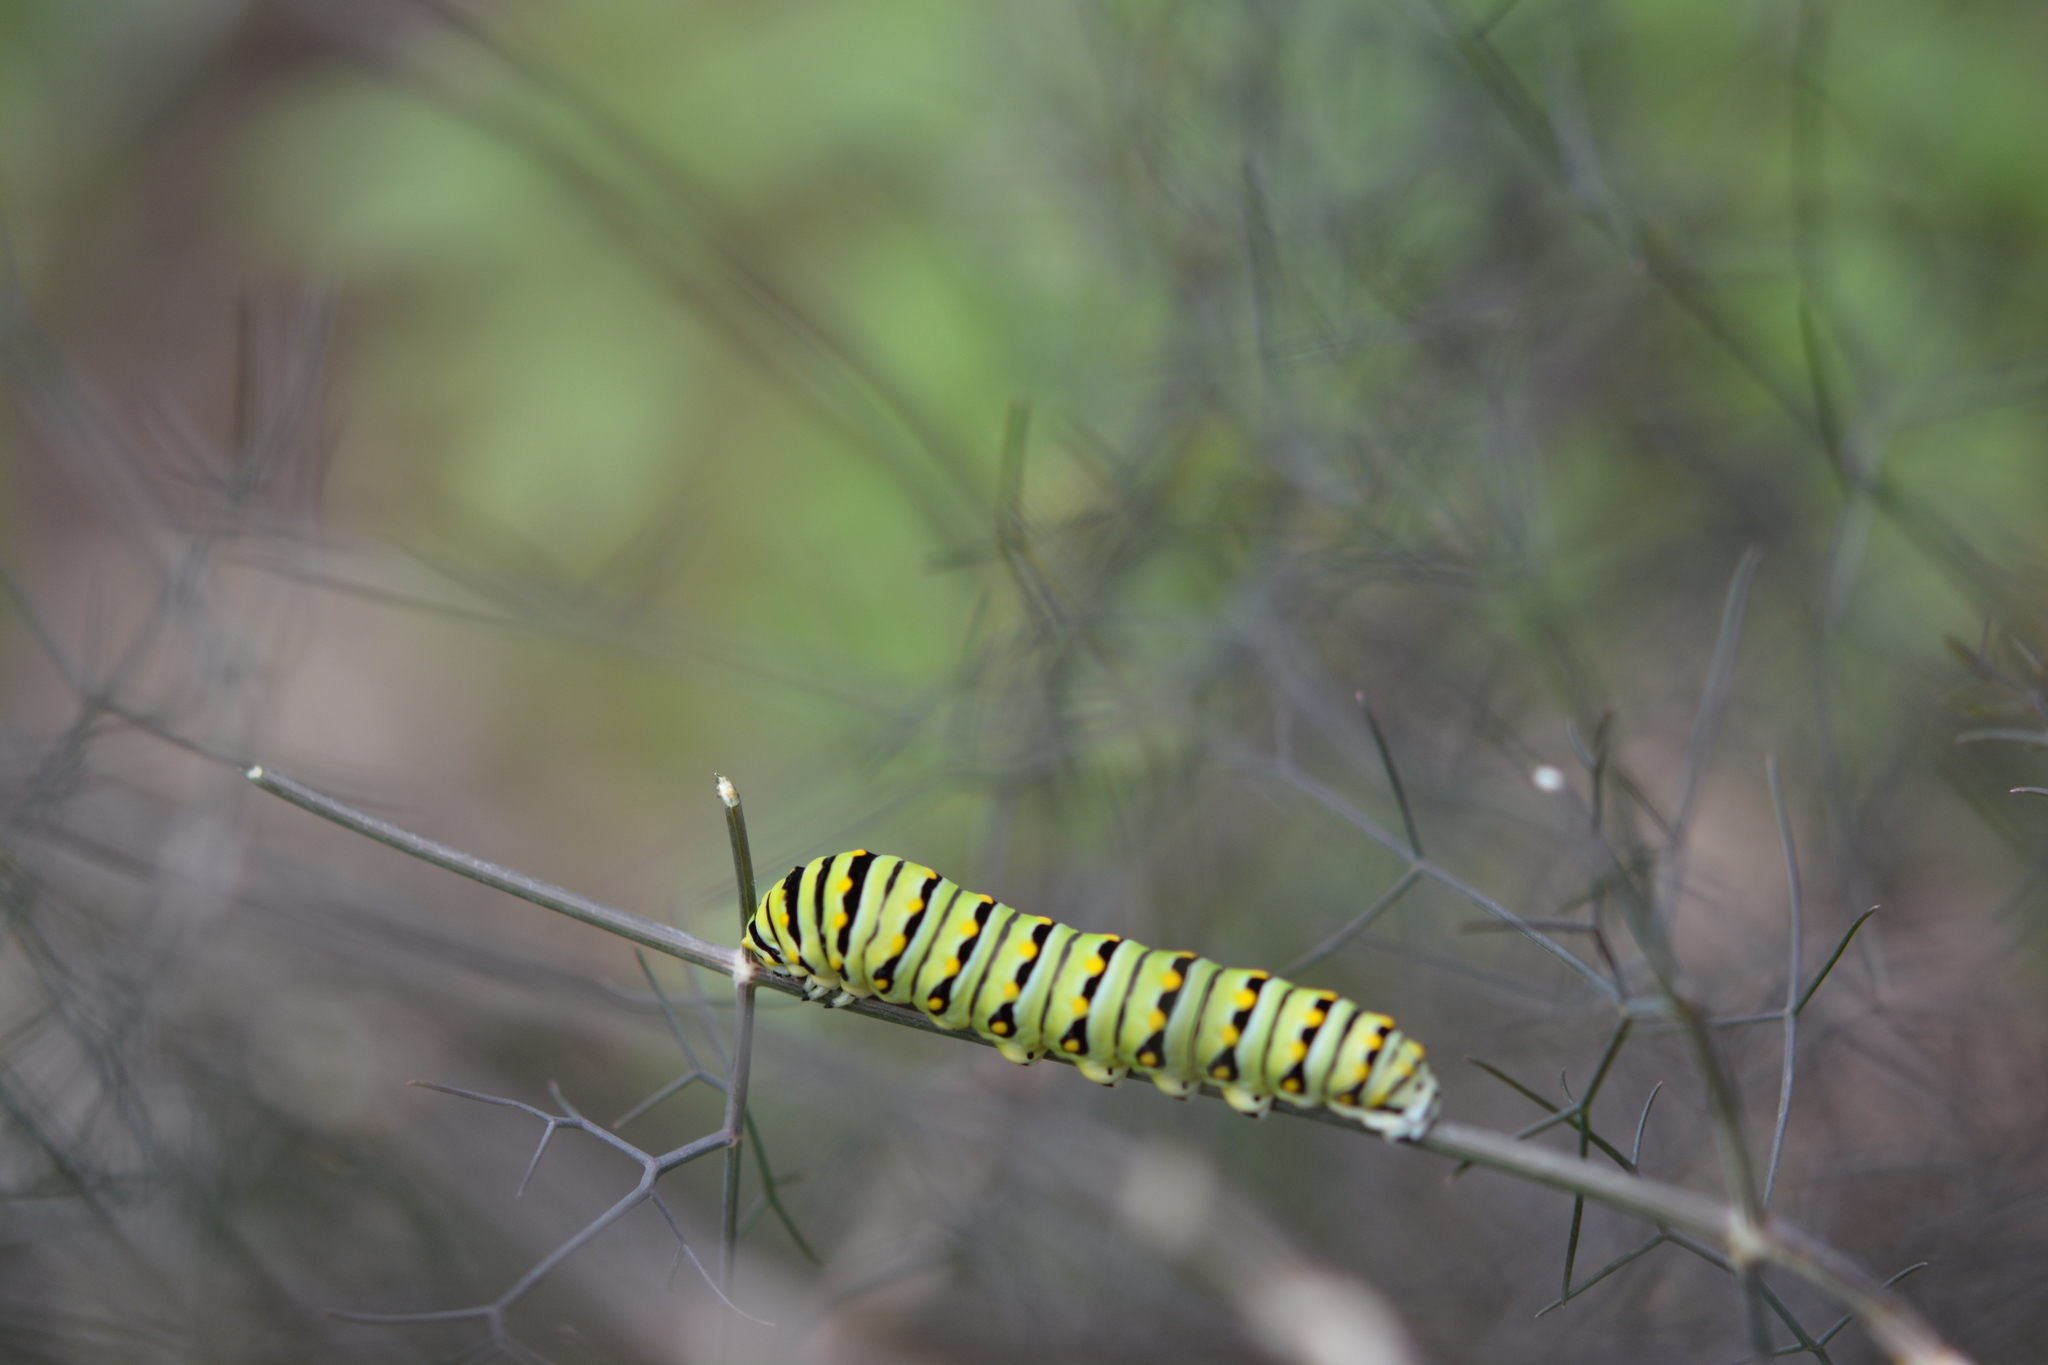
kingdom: Animalia
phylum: Arthropoda
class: Insecta
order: Lepidoptera
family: Papilionidae
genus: Papilio
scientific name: Papilio polyxenes
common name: Black swallowtail
